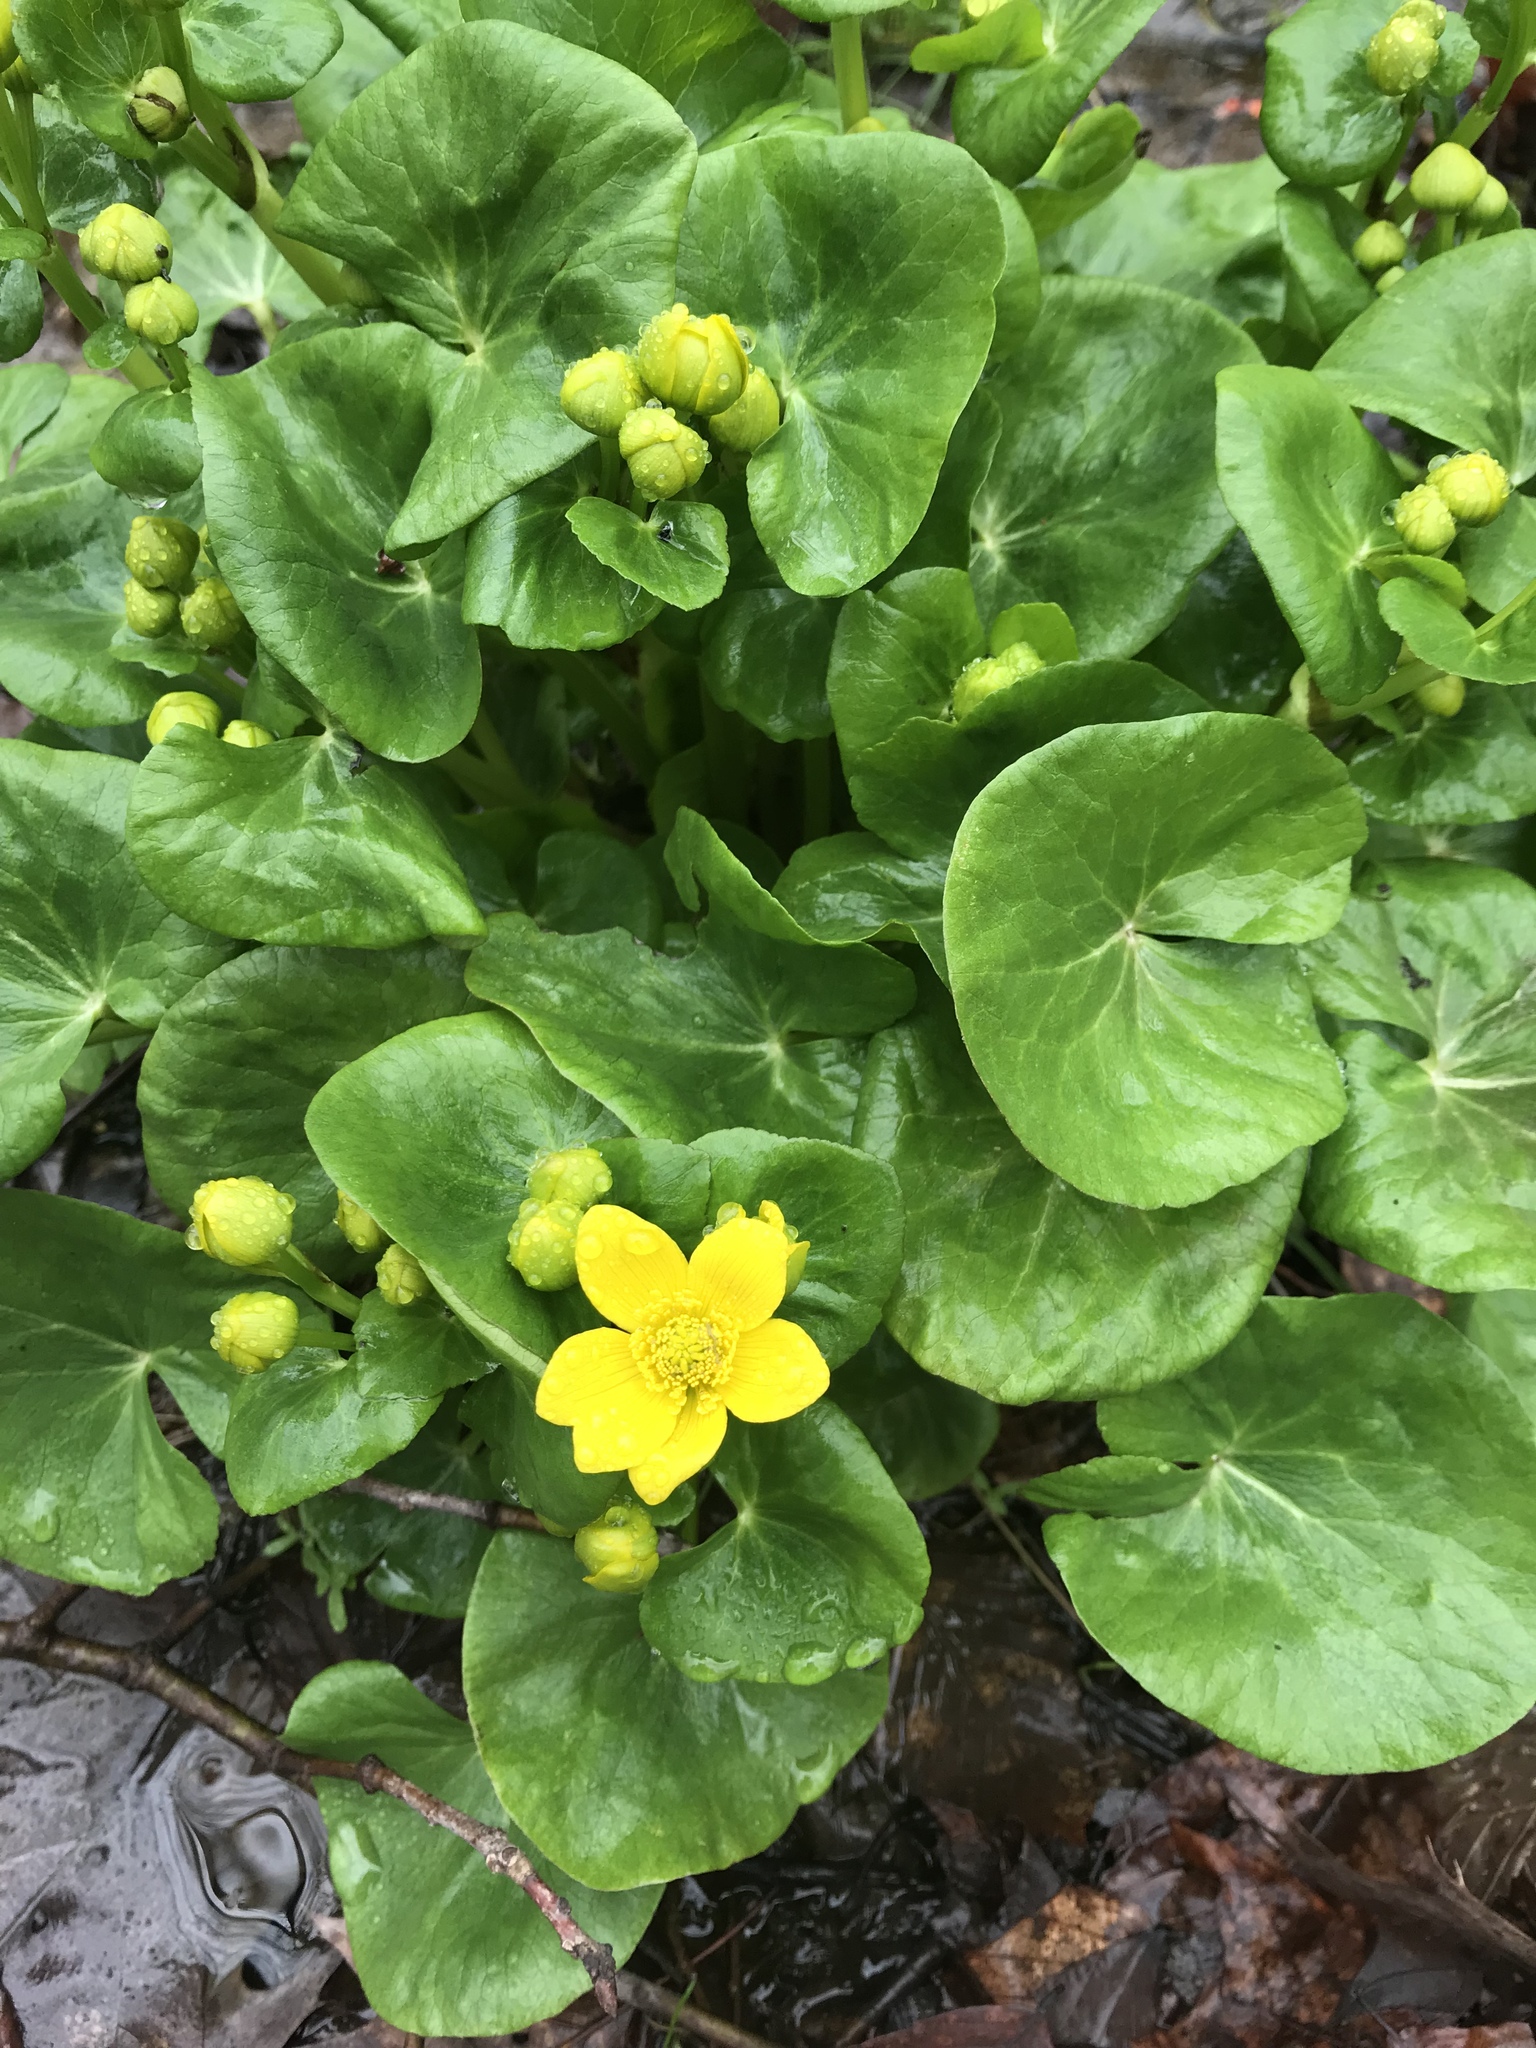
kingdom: Plantae
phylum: Tracheophyta
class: Magnoliopsida
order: Ranunculales
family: Ranunculaceae
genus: Caltha
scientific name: Caltha palustris
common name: Marsh marigold
